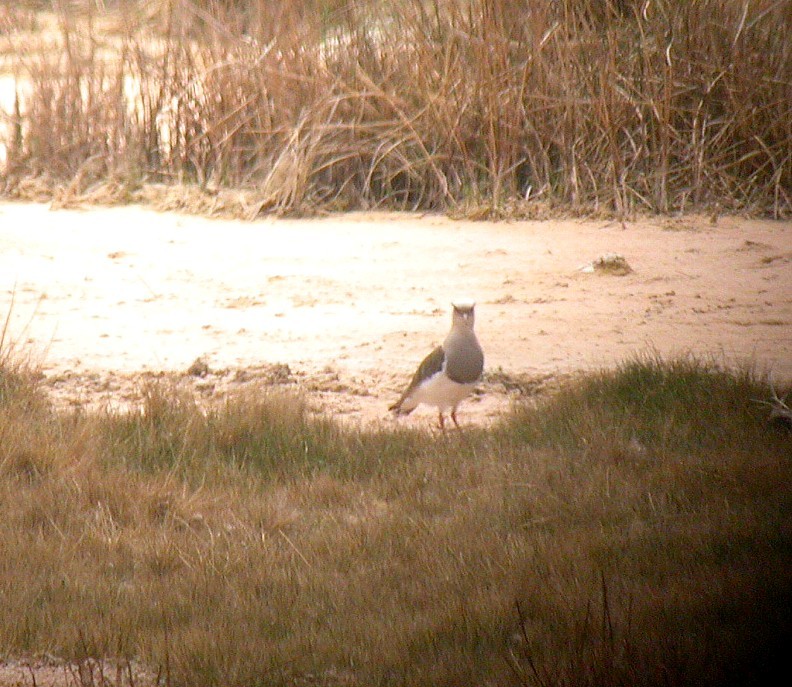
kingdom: Animalia
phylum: Chordata
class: Aves
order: Charadriiformes
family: Charadriidae
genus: Vanellus
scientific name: Vanellus resplendens
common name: Andean lapwing
